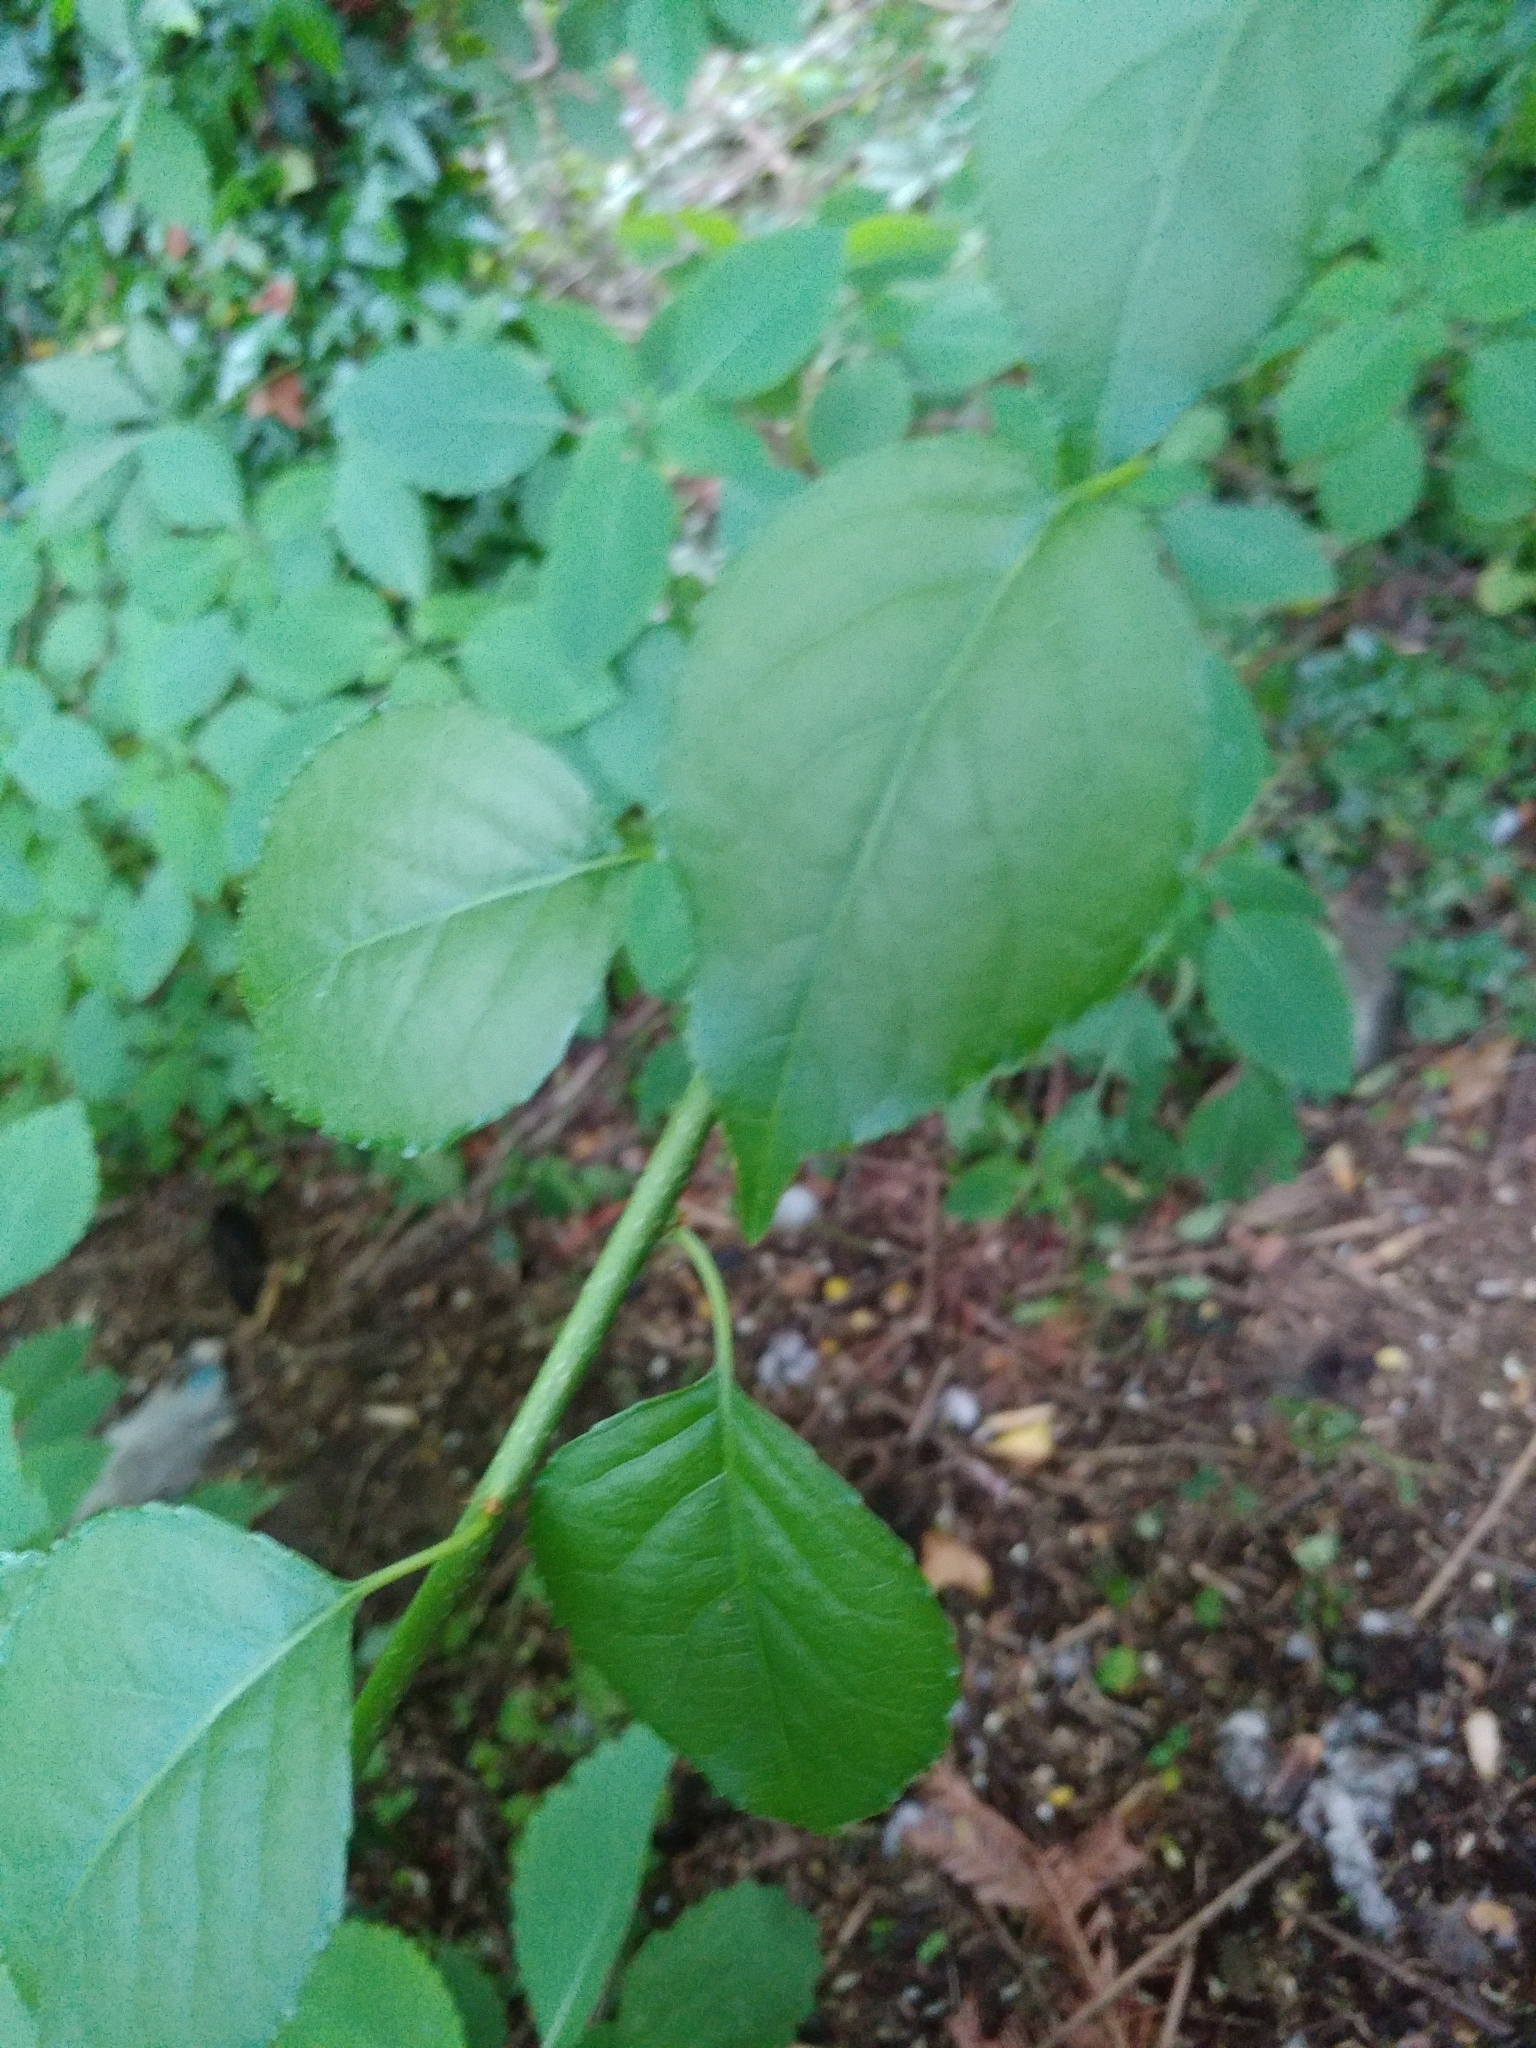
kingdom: Plantae
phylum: Tracheophyta
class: Magnoliopsida
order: Celastrales
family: Celastraceae
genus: Celastrus
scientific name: Celastrus orbiculatus
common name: Oriental bittersweet
